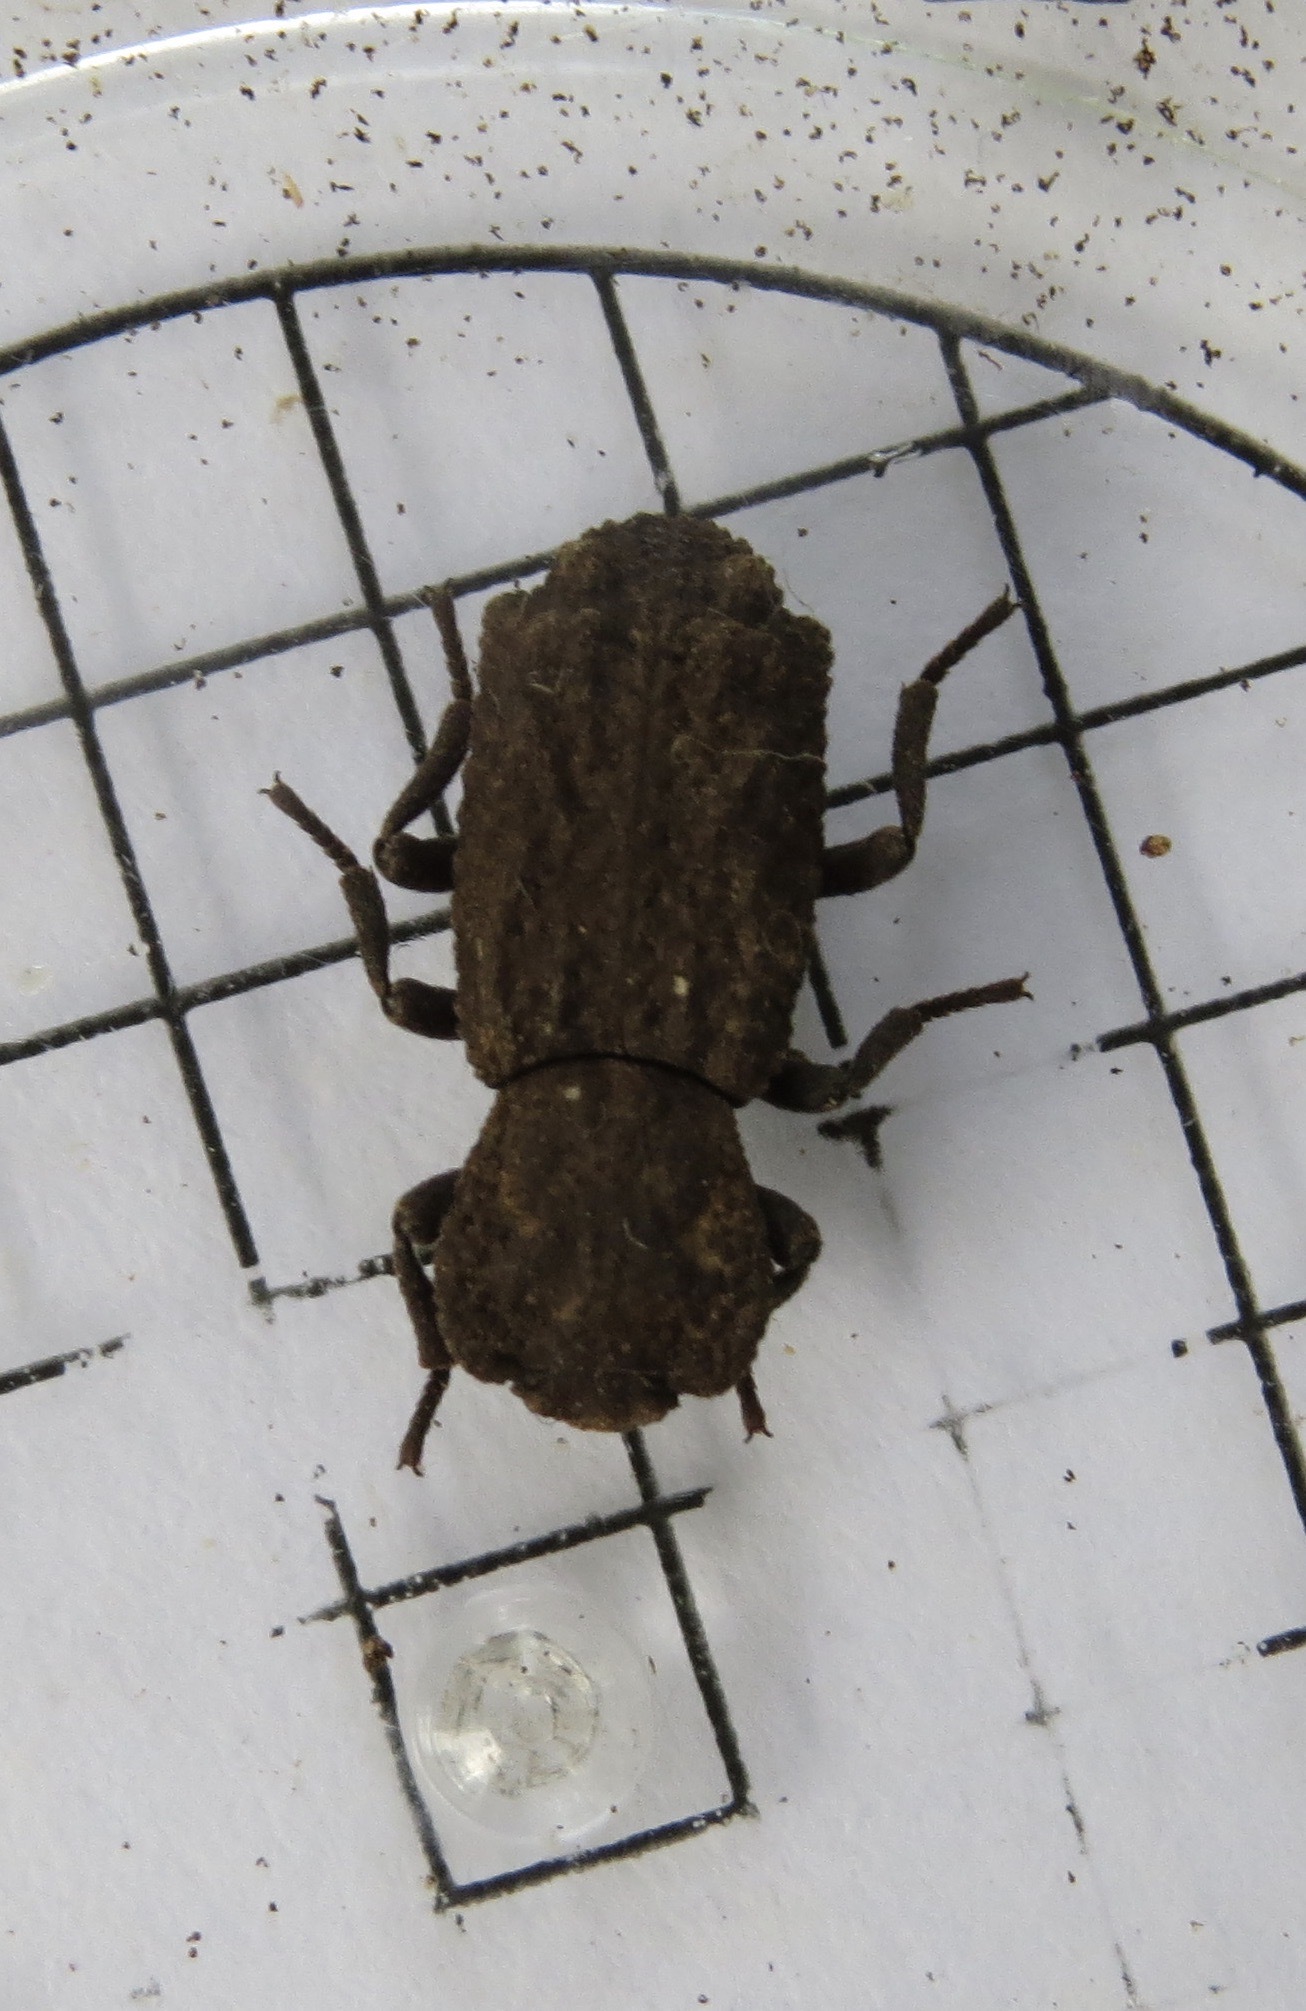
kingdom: Animalia
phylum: Arthropoda
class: Insecta
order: Coleoptera
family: Zopheridae
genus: Phloeodes
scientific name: Phloeodes plicatus
